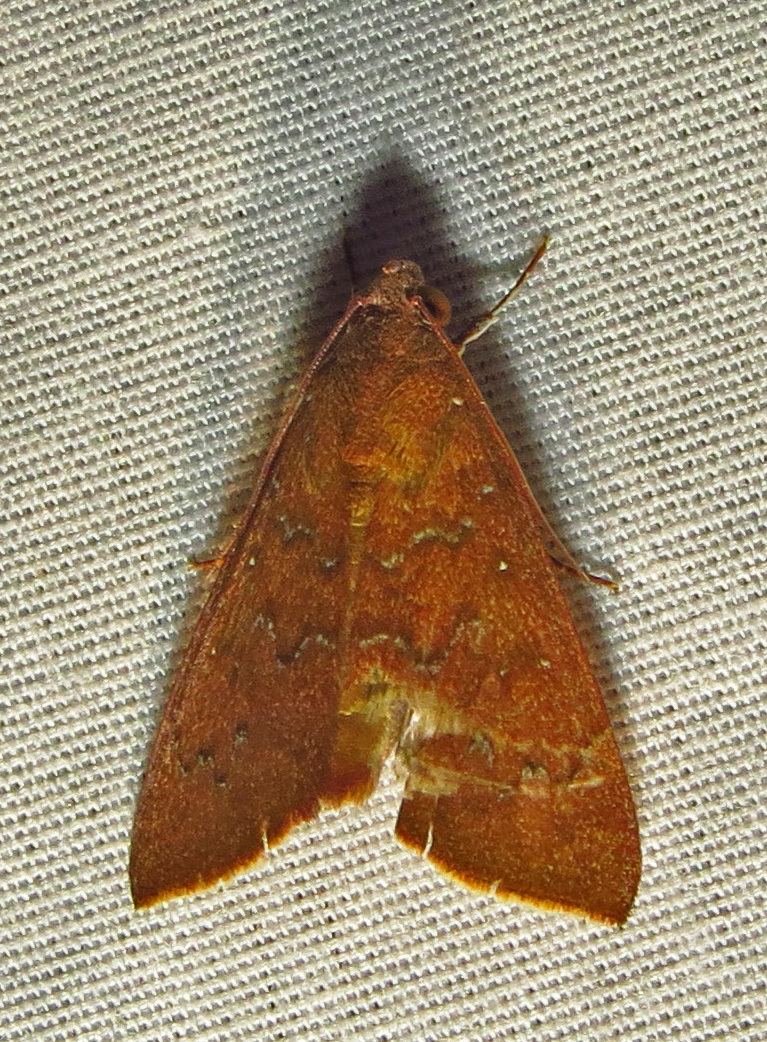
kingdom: Animalia
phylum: Arthropoda
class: Insecta
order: Lepidoptera
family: Erebidae
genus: Anomis
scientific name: Anomis illita
